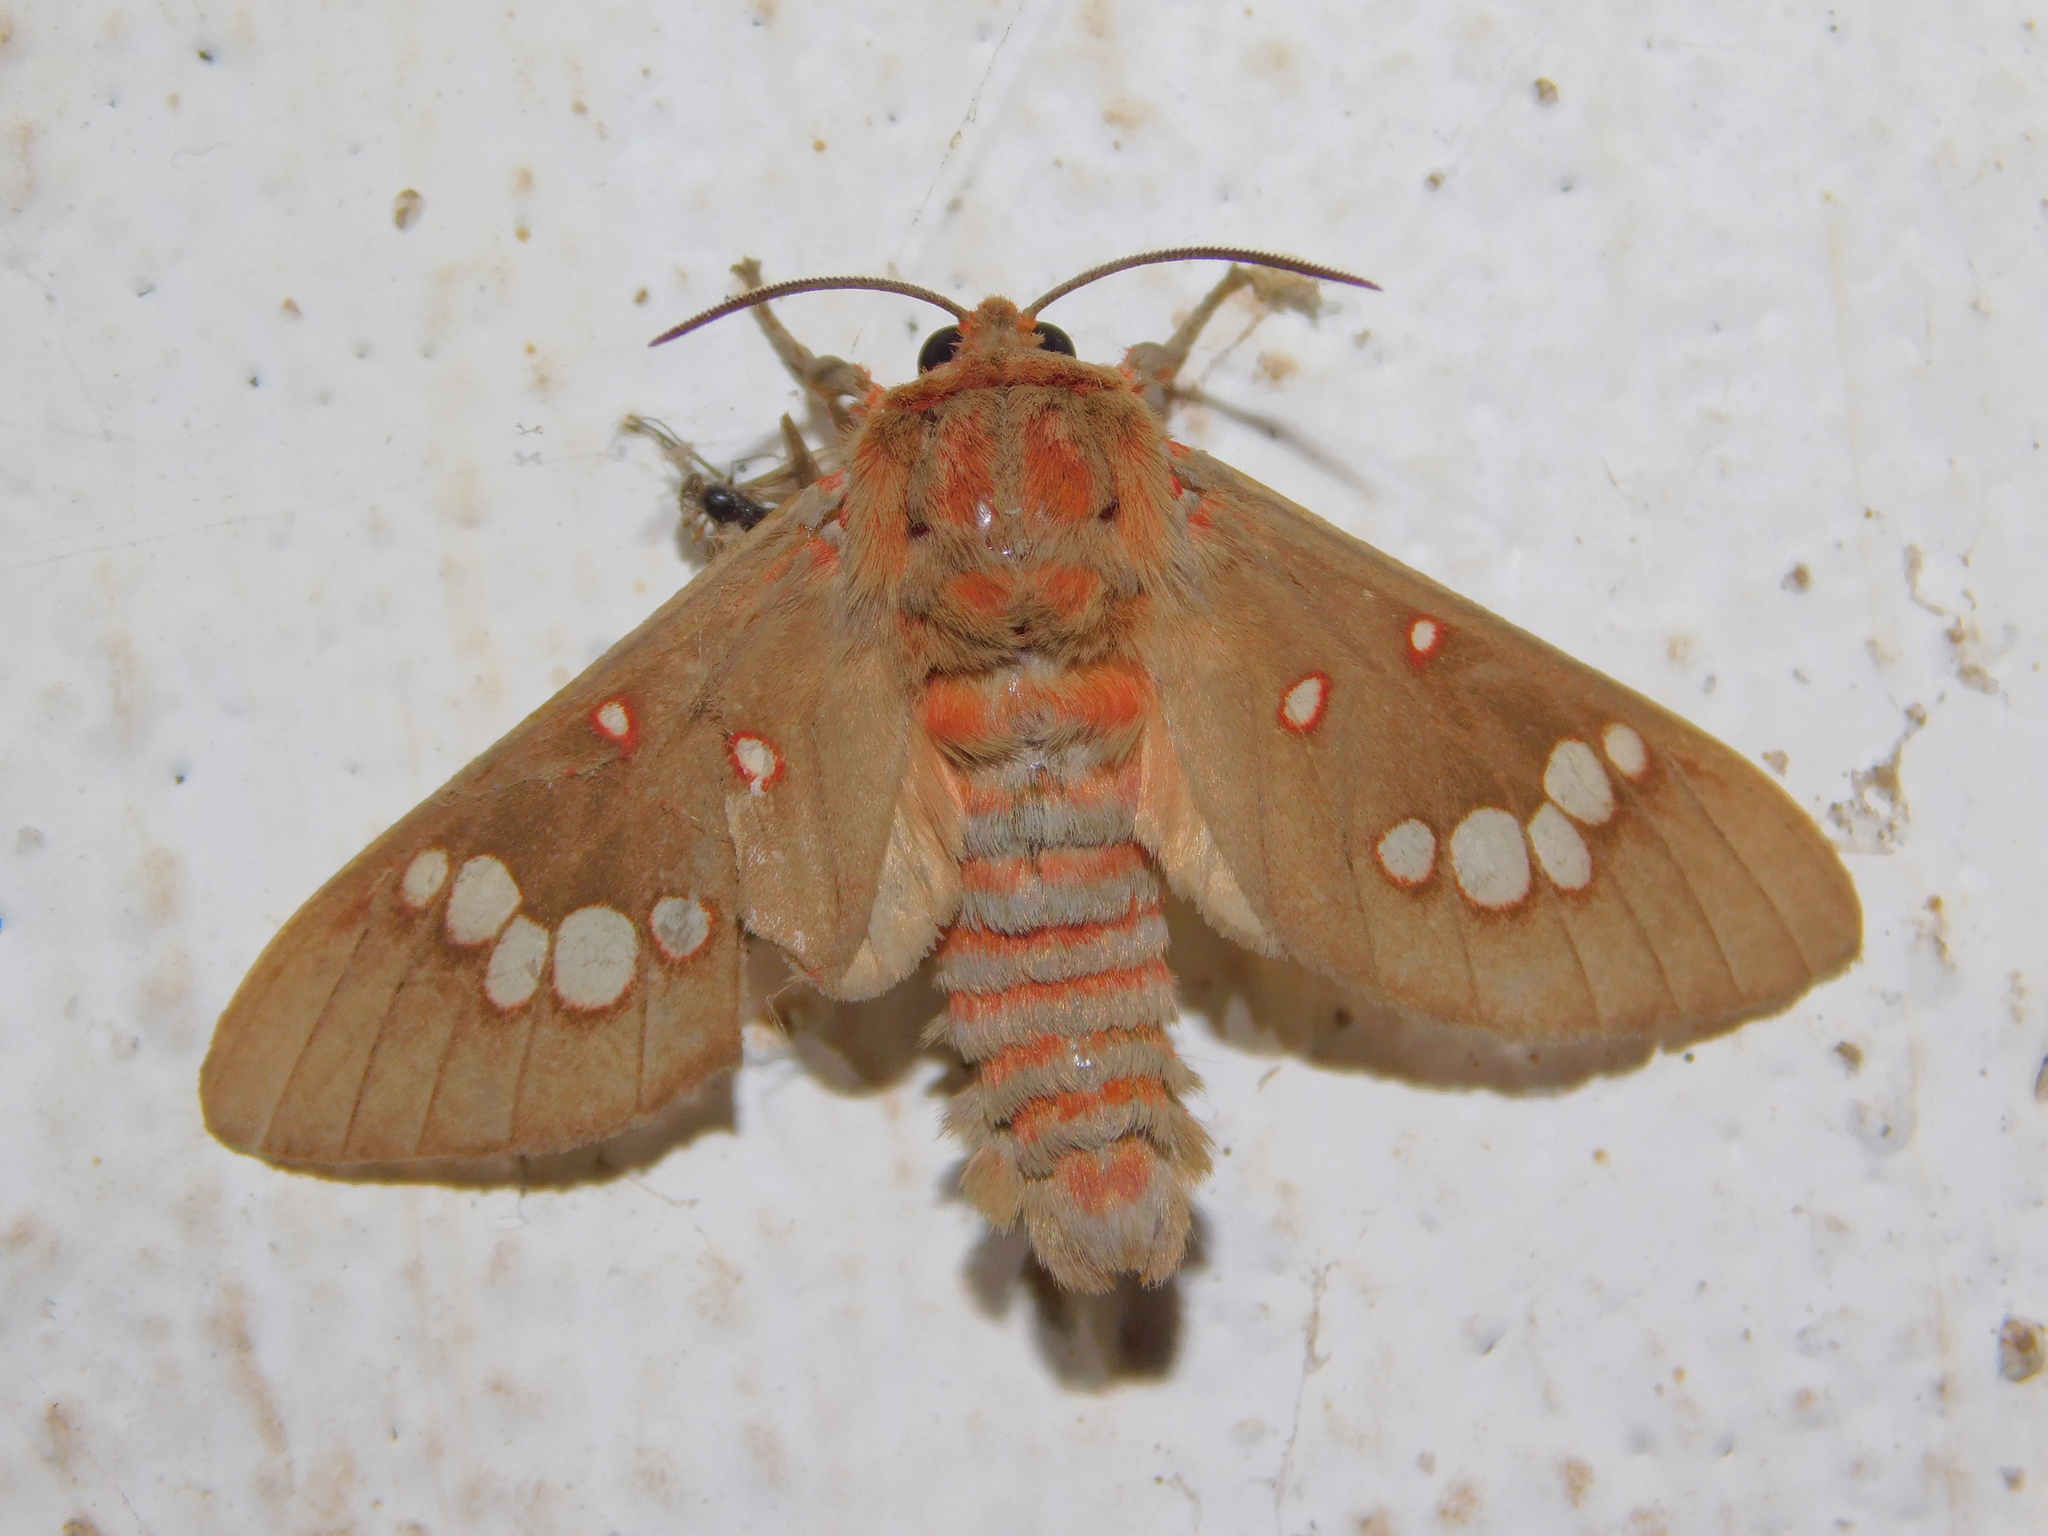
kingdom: Animalia
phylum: Arthropoda
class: Insecta
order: Lepidoptera
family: Erebidae
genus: Balacra
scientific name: Balacra preussi
